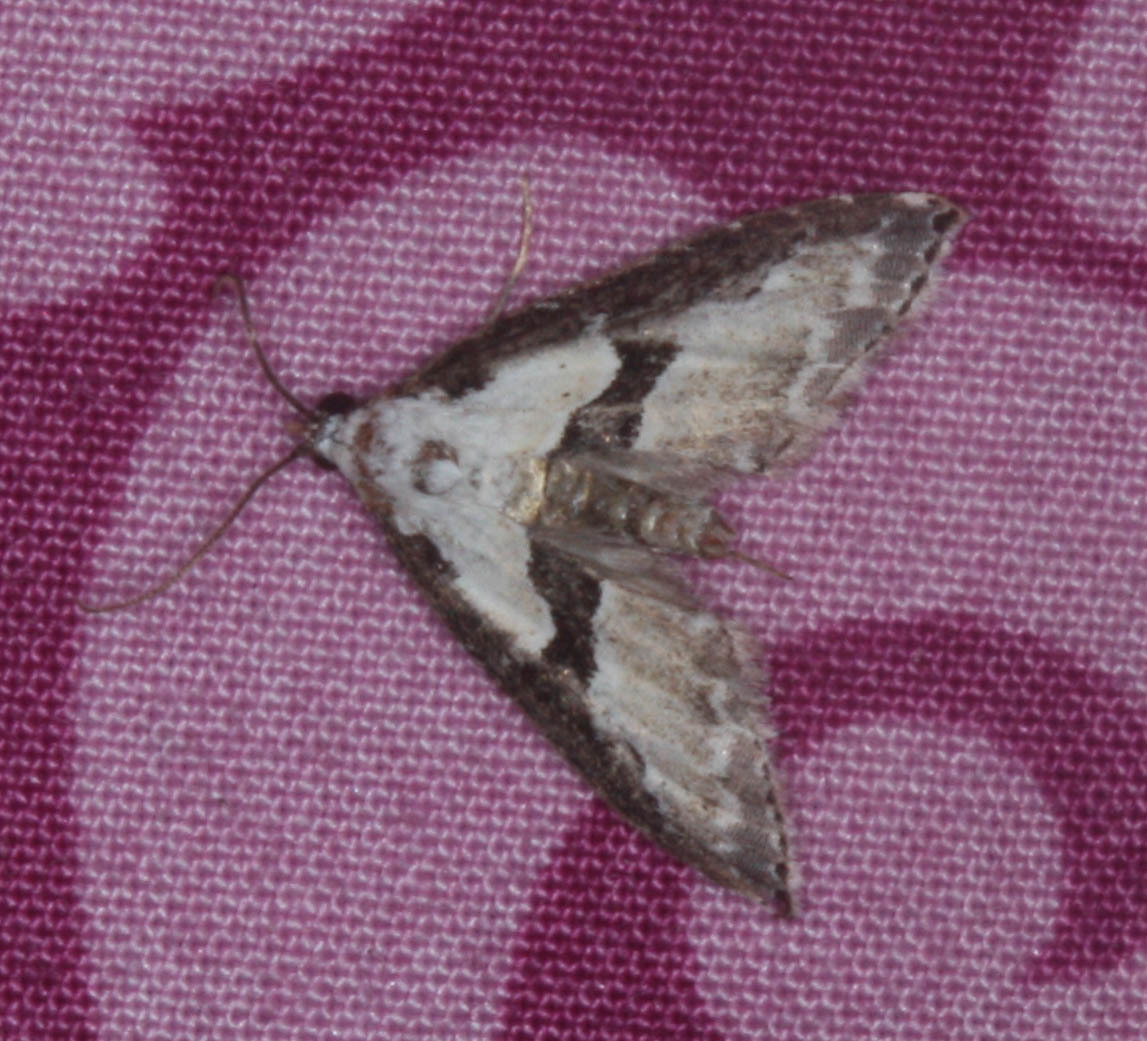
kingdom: Animalia
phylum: Arthropoda
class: Insecta
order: Lepidoptera
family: Noctuidae
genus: Nigetia
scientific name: Nigetia formosalis
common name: Thin-winged owlet
